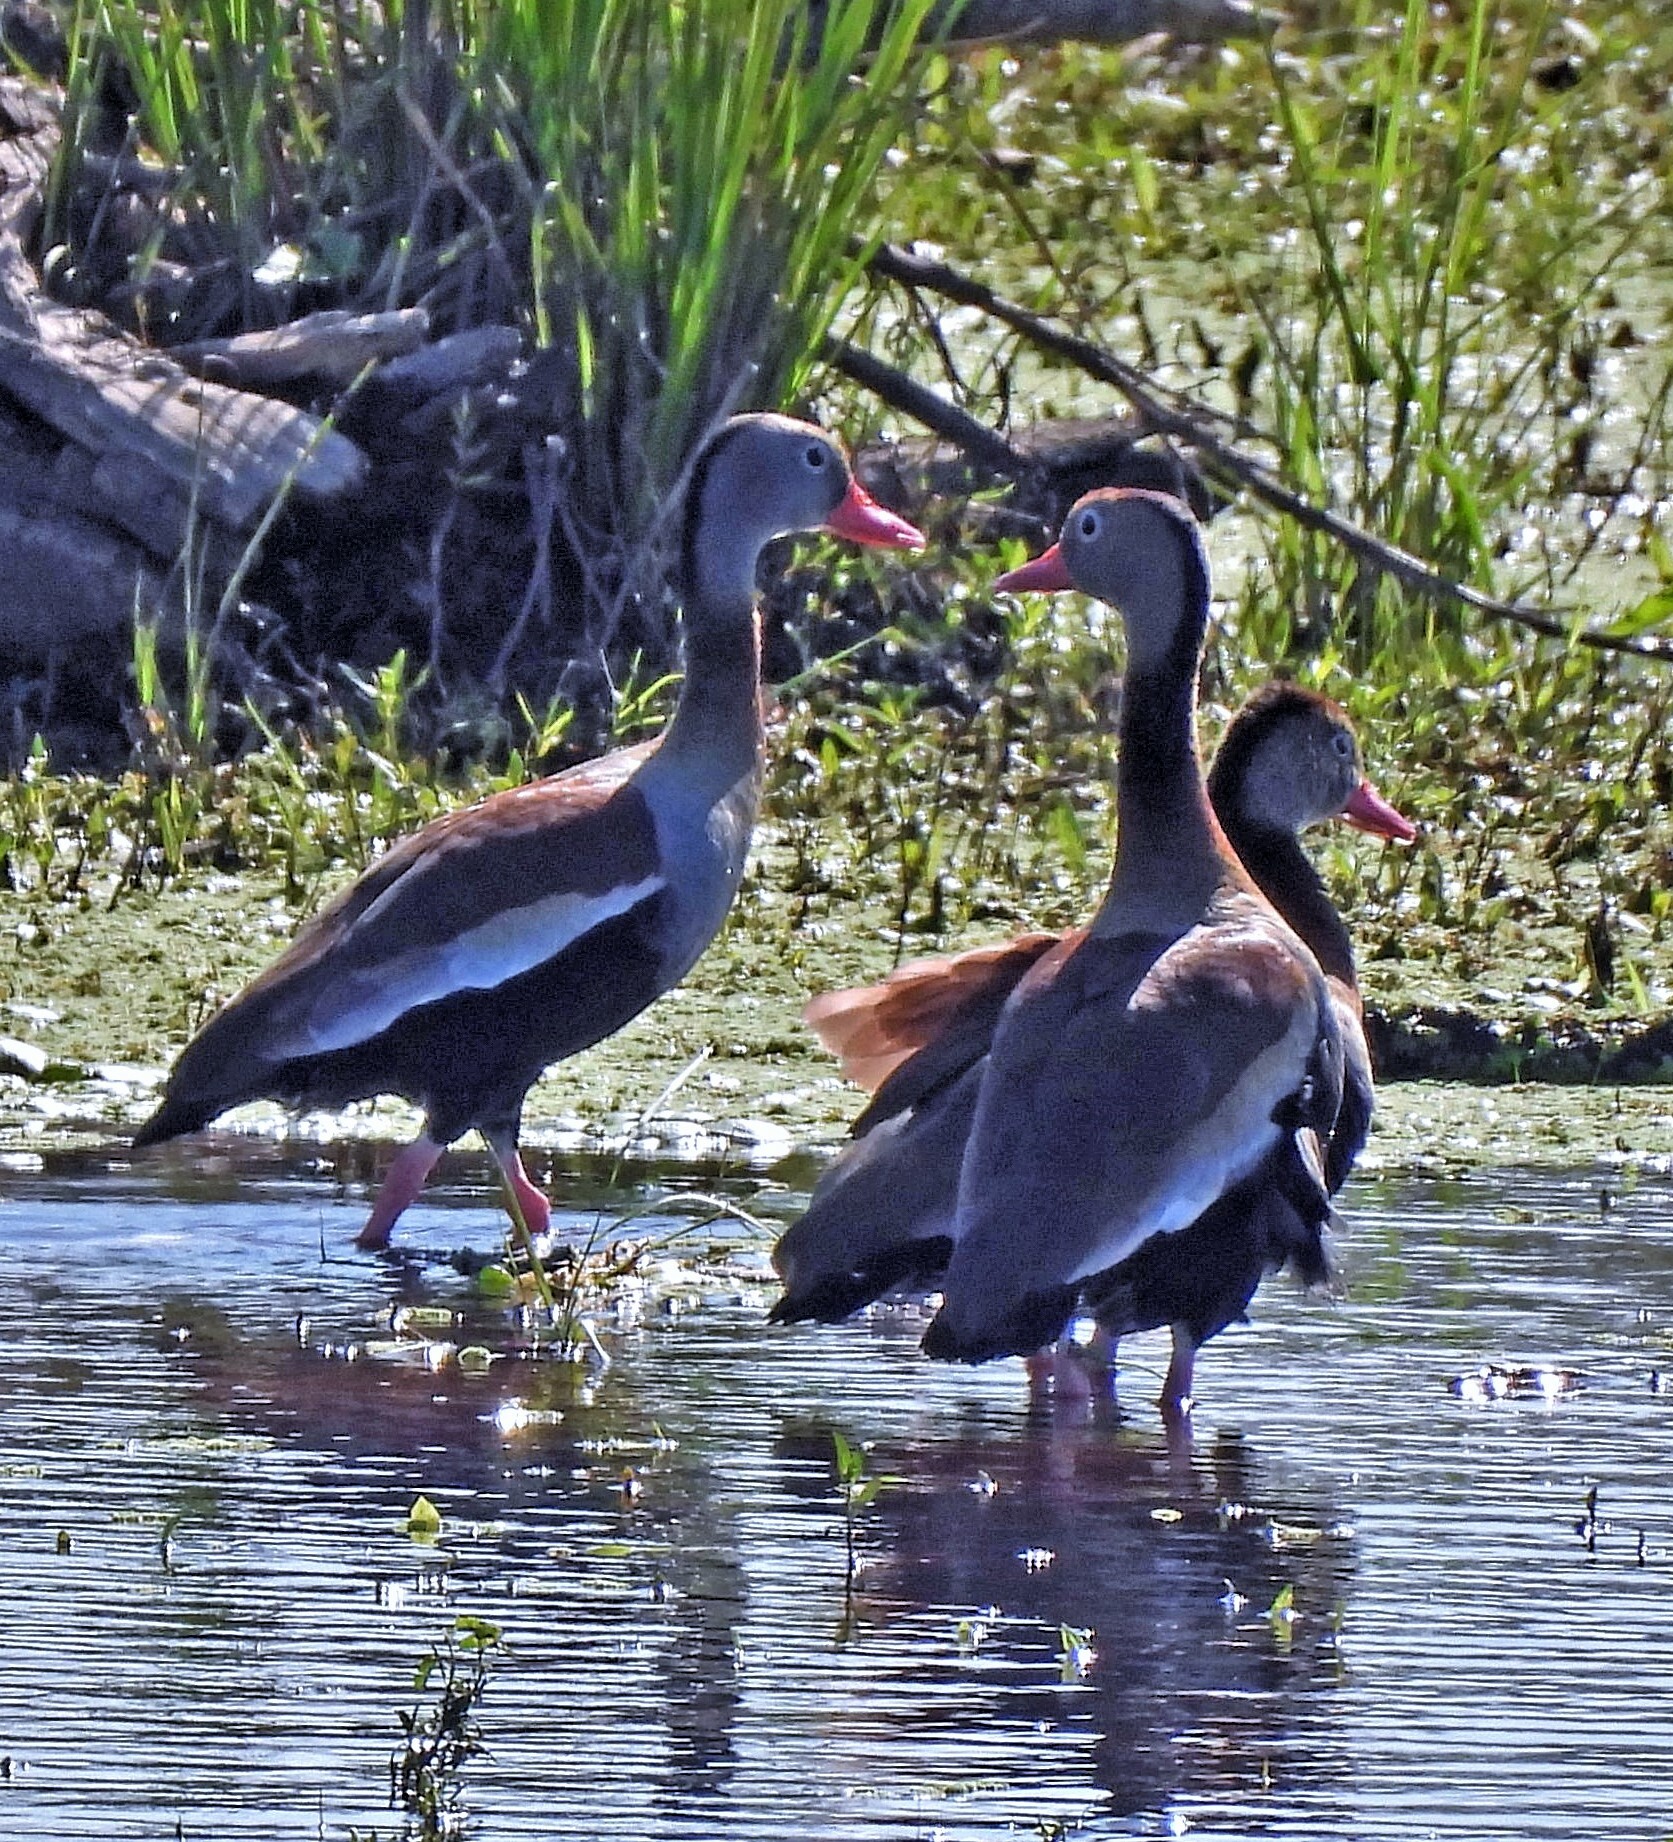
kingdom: Animalia
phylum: Chordata
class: Aves
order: Anseriformes
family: Anatidae
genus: Dendrocygna
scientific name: Dendrocygna autumnalis
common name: Black-bellied whistling duck
